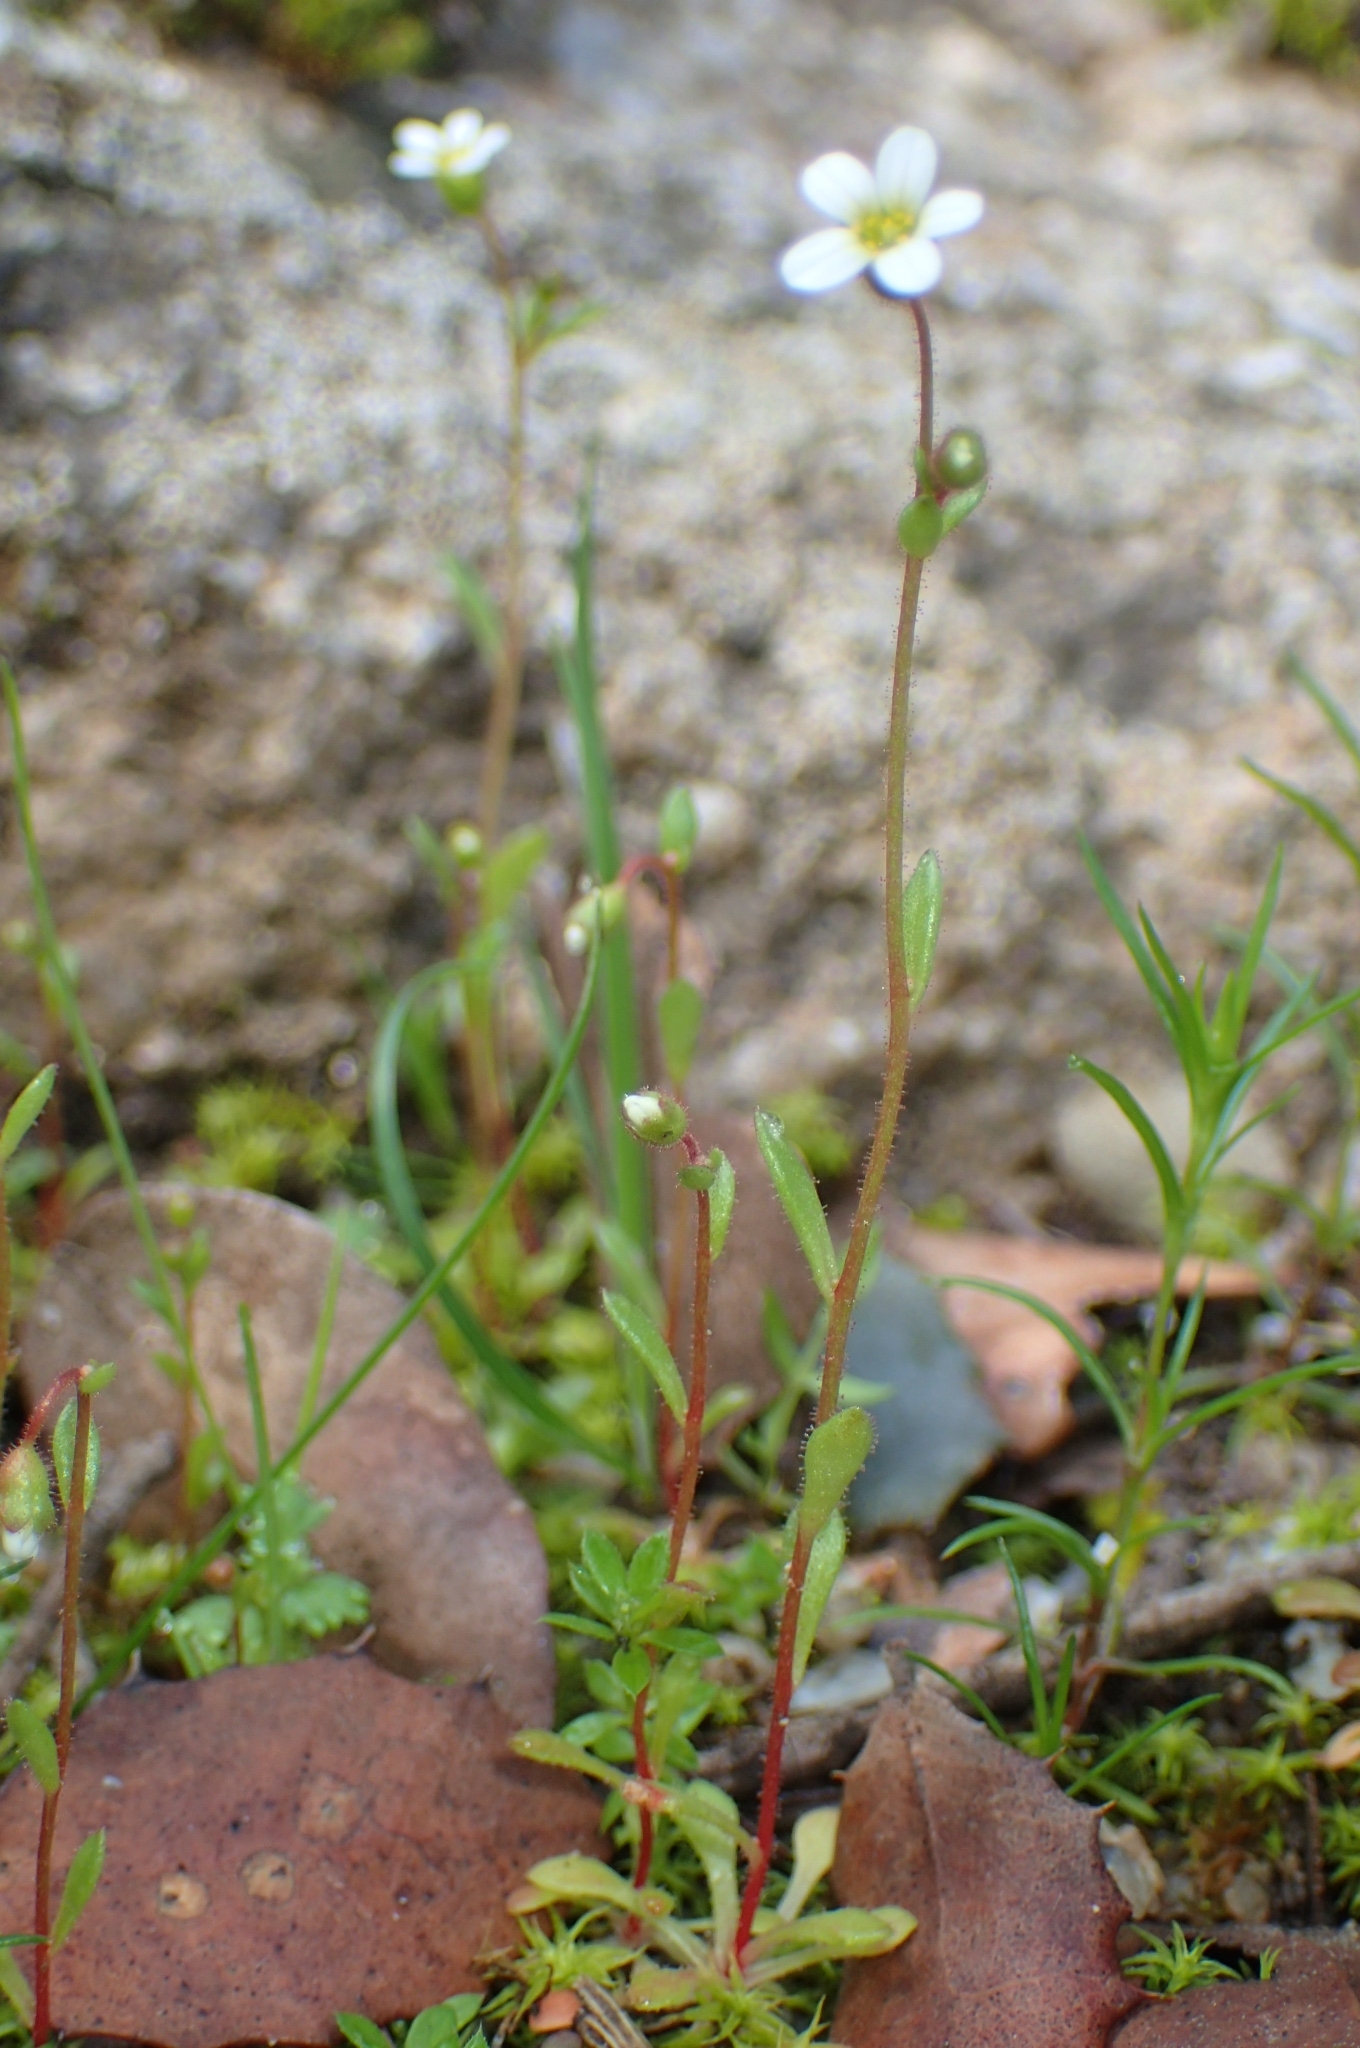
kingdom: Plantae
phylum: Tracheophyta
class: Magnoliopsida
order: Saxifragales
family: Saxifragaceae
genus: Saxifraga
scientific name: Saxifraga tridactylites
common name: Rue-leaved saxifrage
